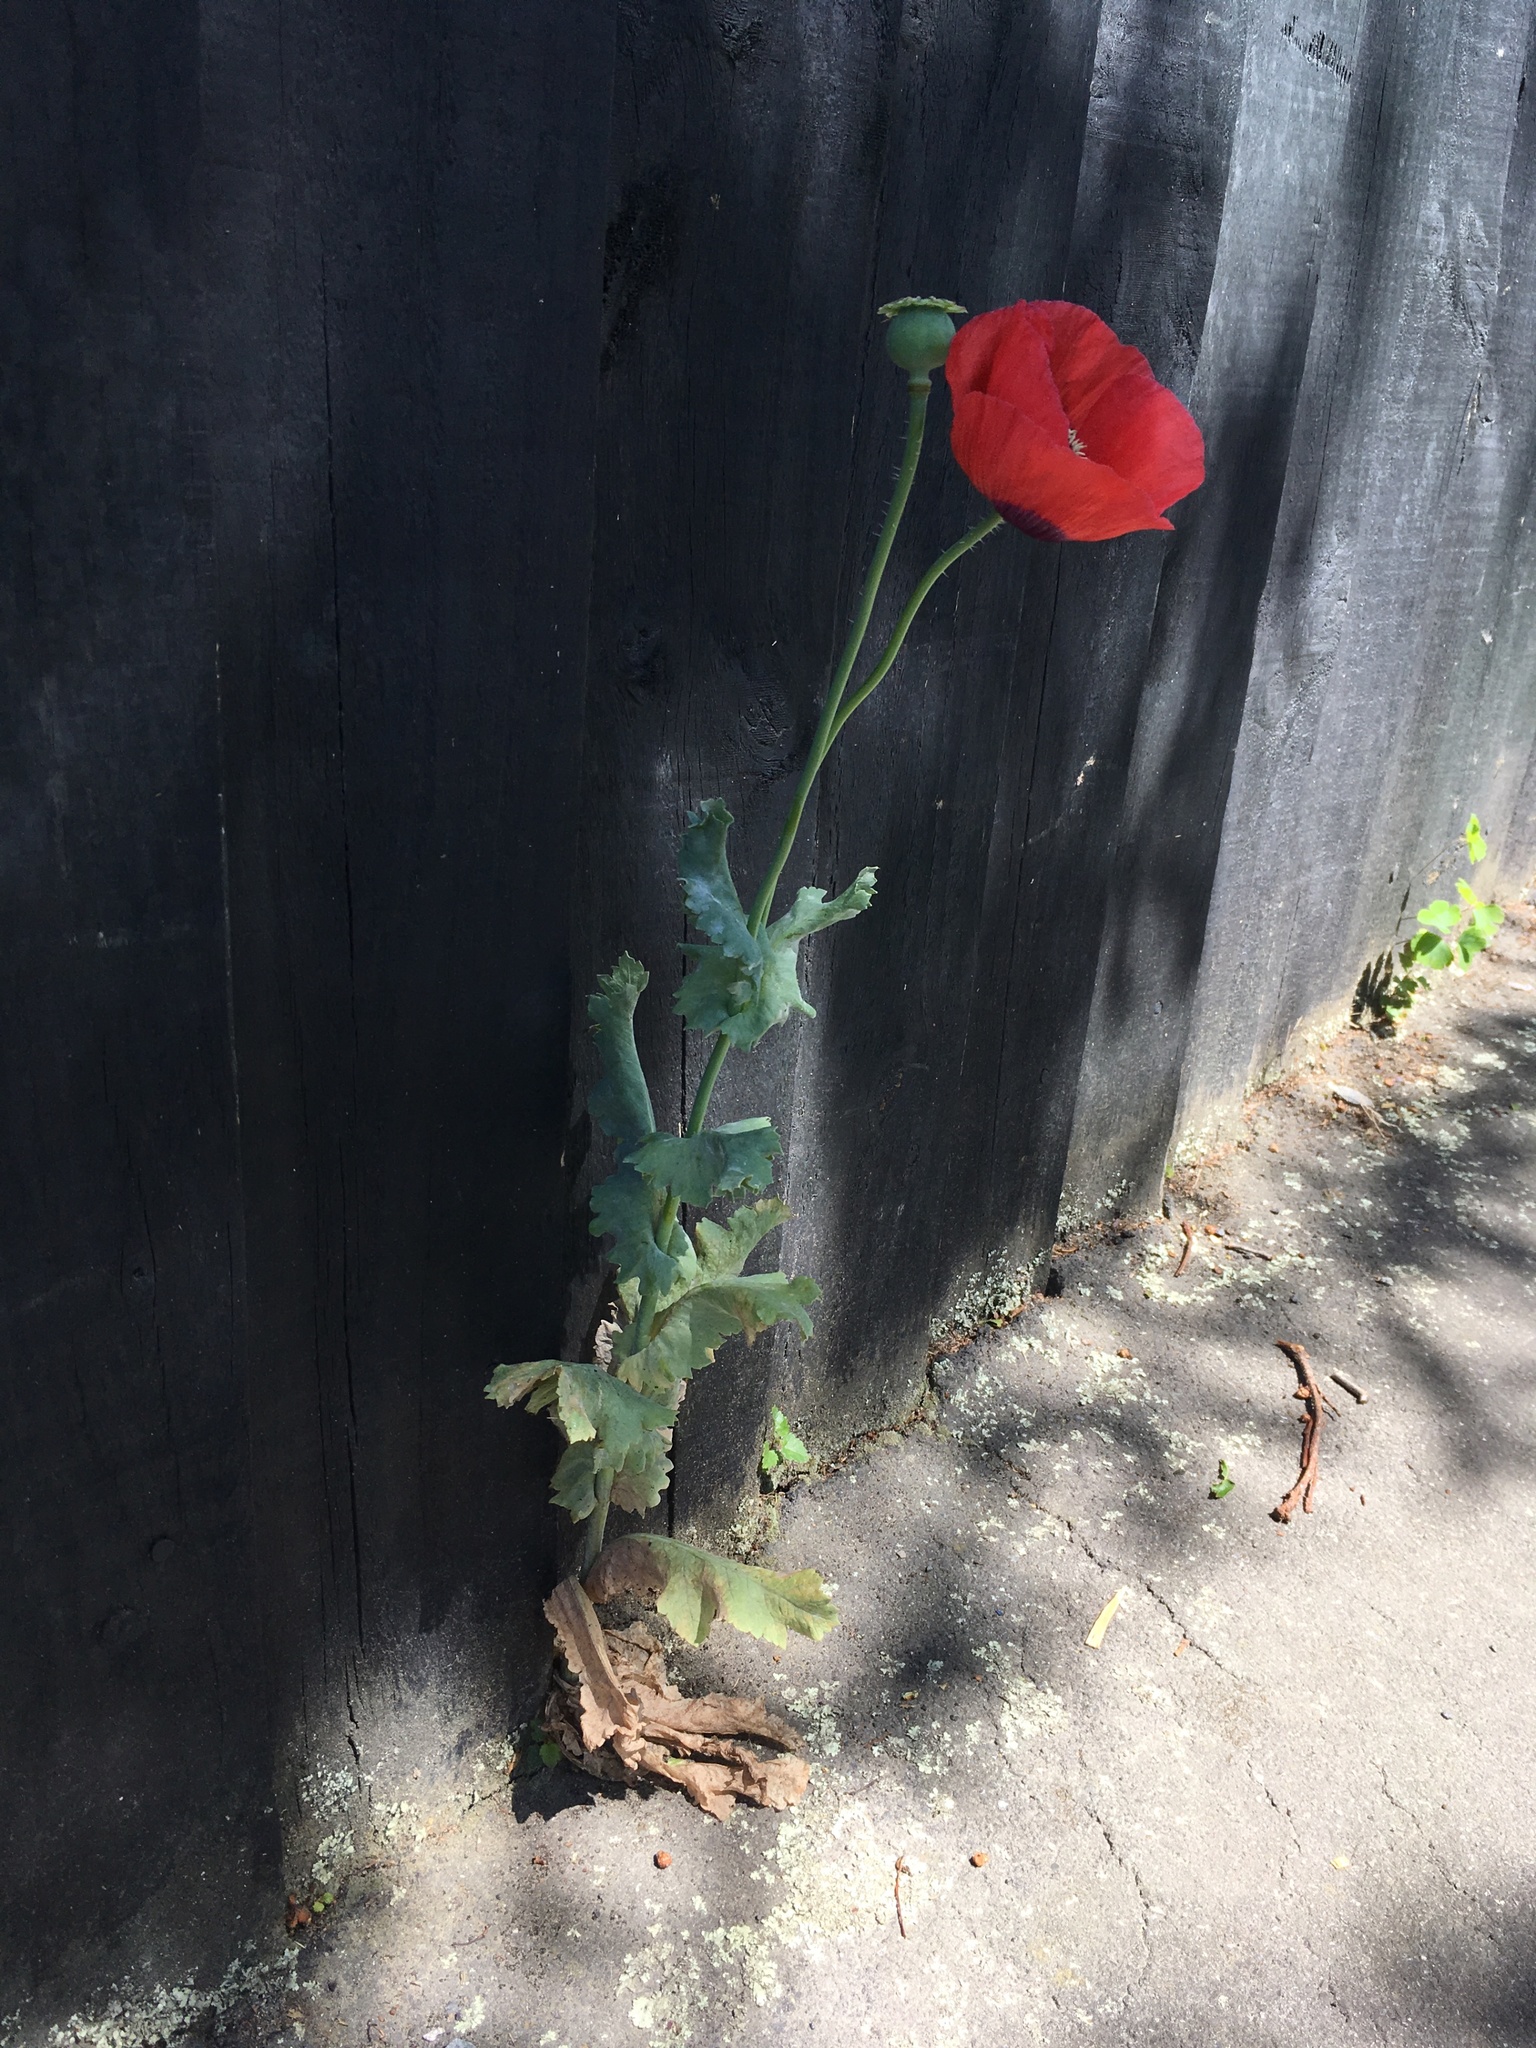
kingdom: Plantae
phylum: Tracheophyta
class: Magnoliopsida
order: Ranunculales
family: Papaveraceae
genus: Papaver
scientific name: Papaver somniferum
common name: Opium poppy
